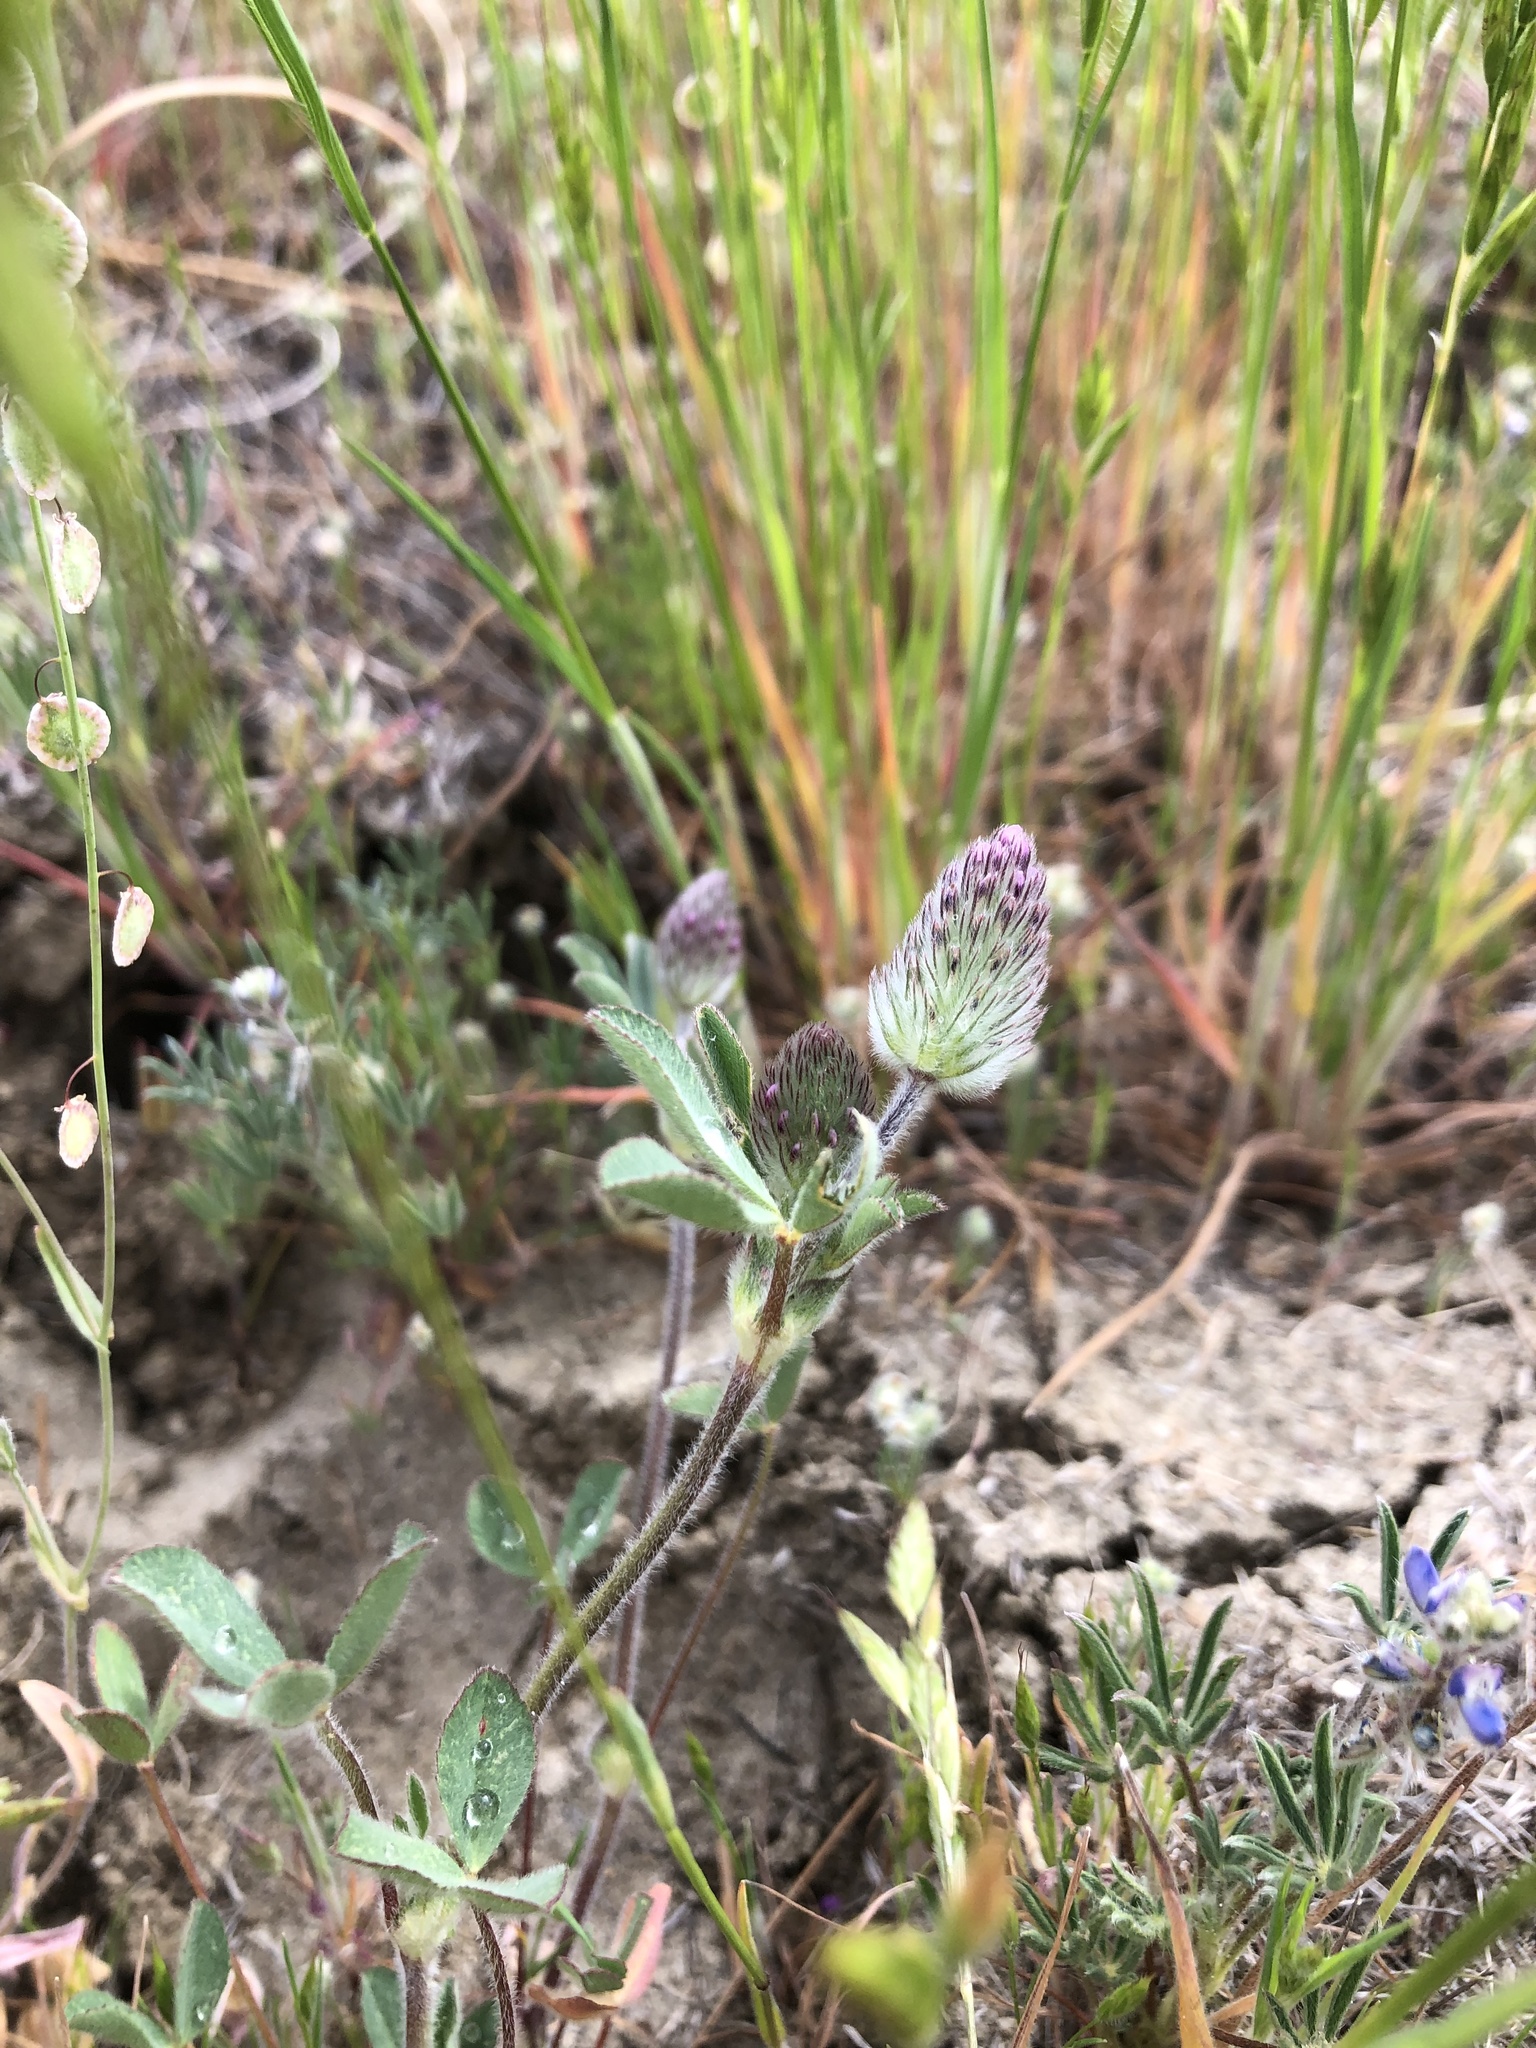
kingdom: Plantae
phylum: Tracheophyta
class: Magnoliopsida
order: Fabales
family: Fabaceae
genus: Trifolium
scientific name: Trifolium albopurpureum
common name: Rancheria clover
